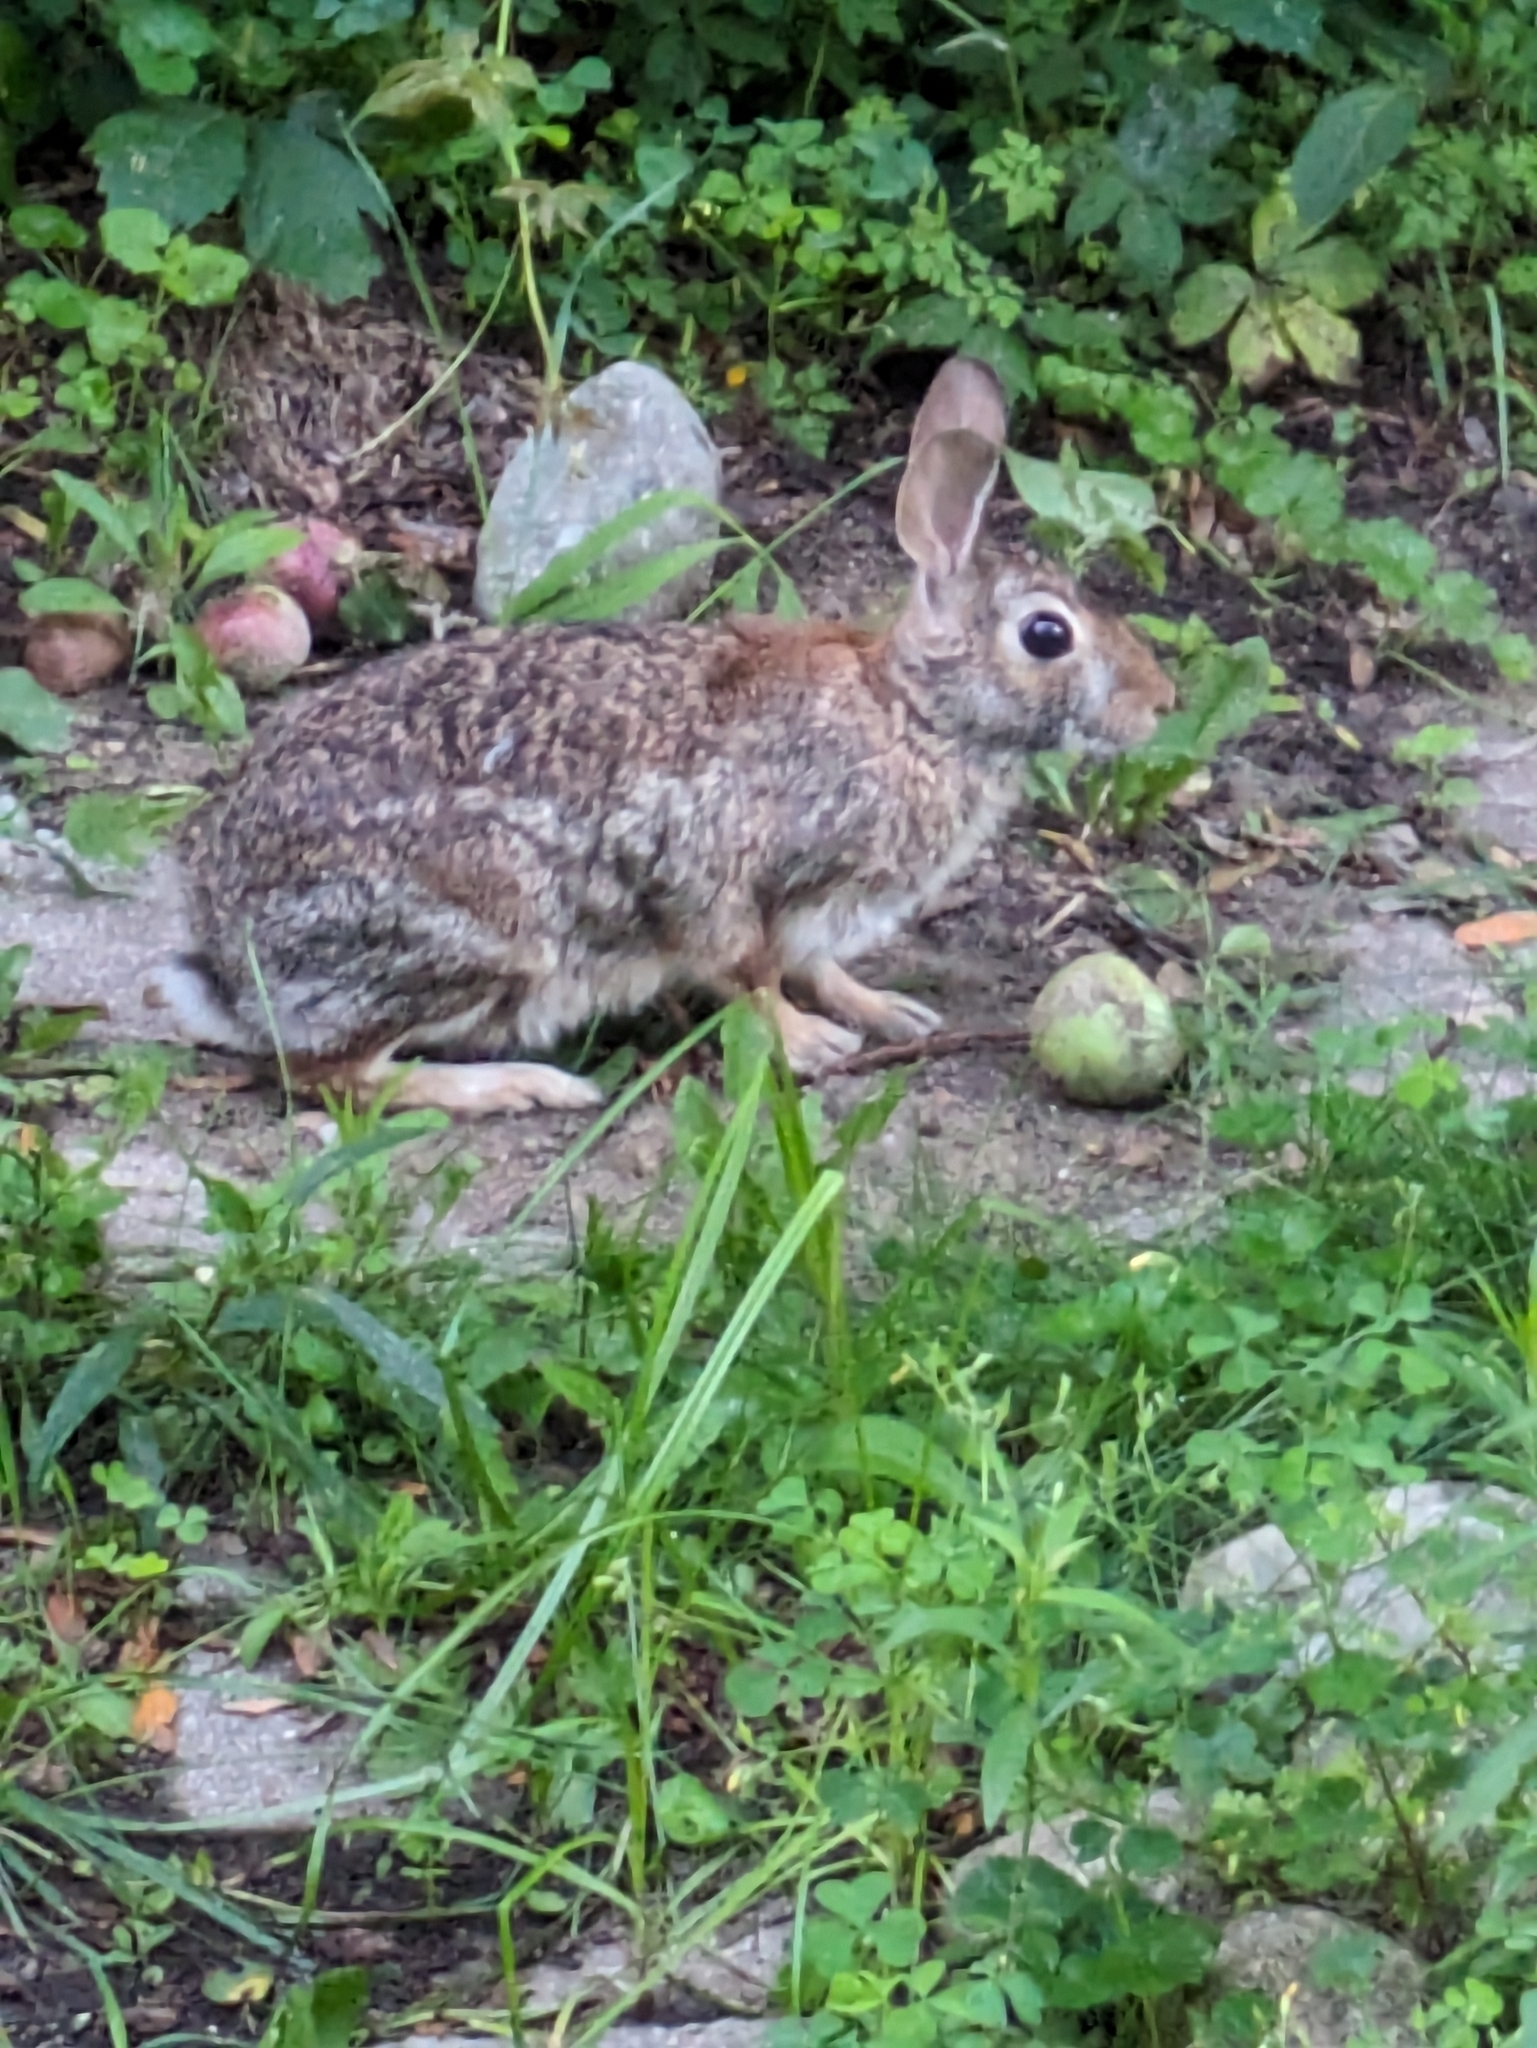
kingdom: Animalia
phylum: Chordata
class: Mammalia
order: Lagomorpha
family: Leporidae
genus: Sylvilagus
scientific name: Sylvilagus floridanus
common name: Eastern cottontail
